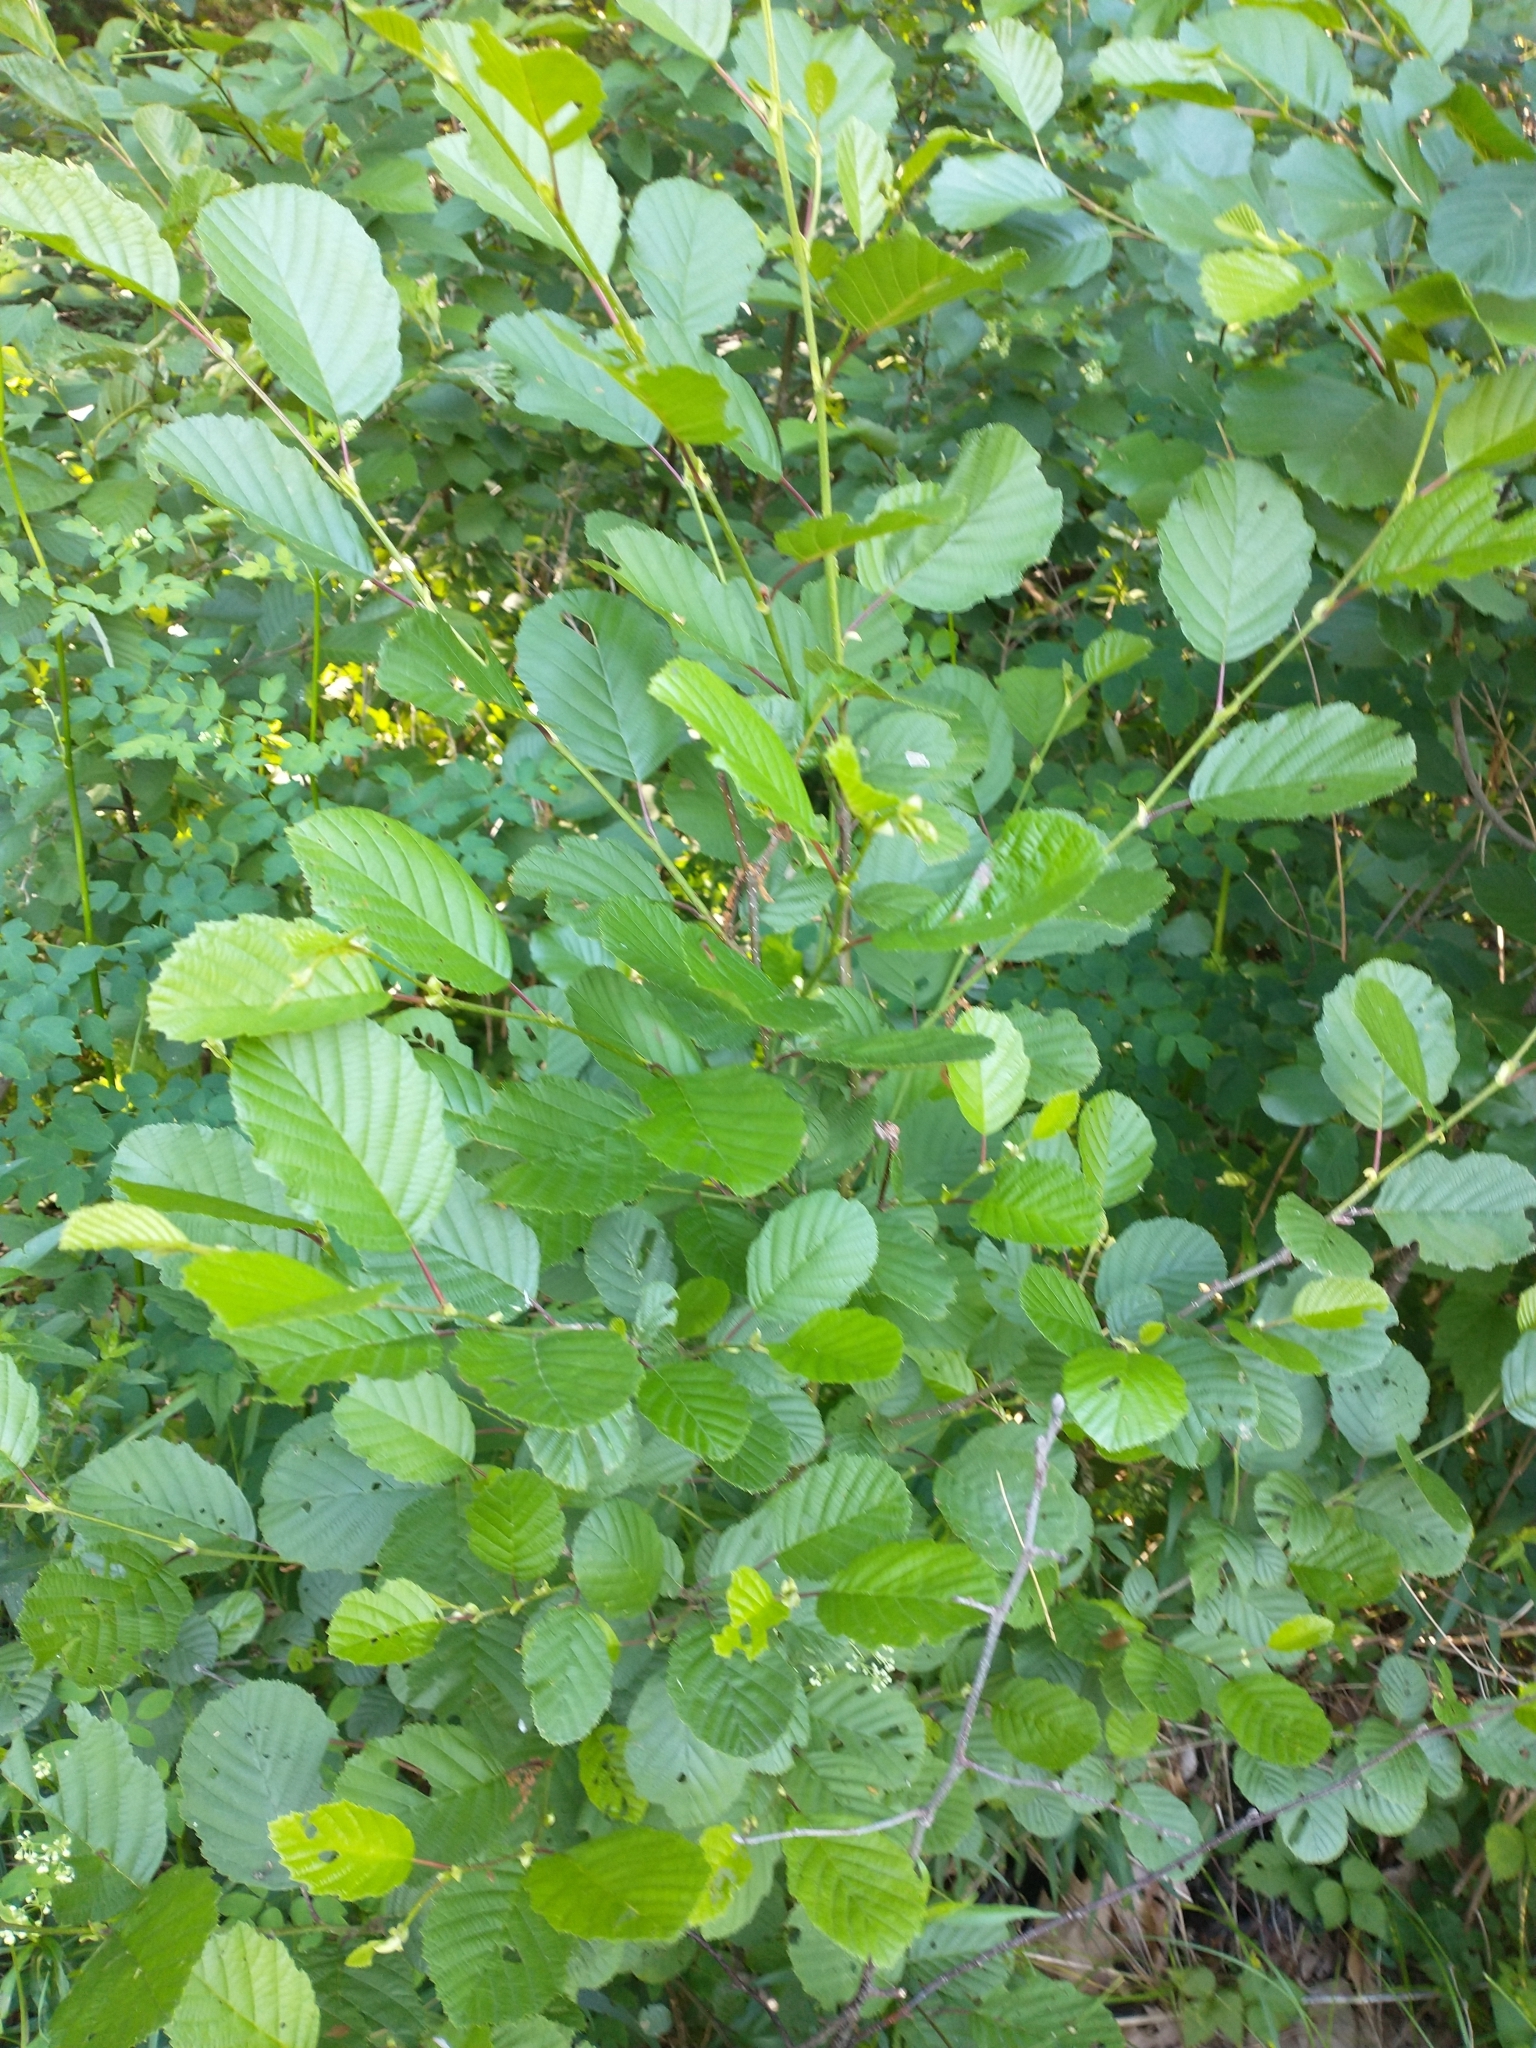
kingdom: Plantae
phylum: Tracheophyta
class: Magnoliopsida
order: Fagales
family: Betulaceae
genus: Alnus
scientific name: Alnus glutinosa
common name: Black alder
